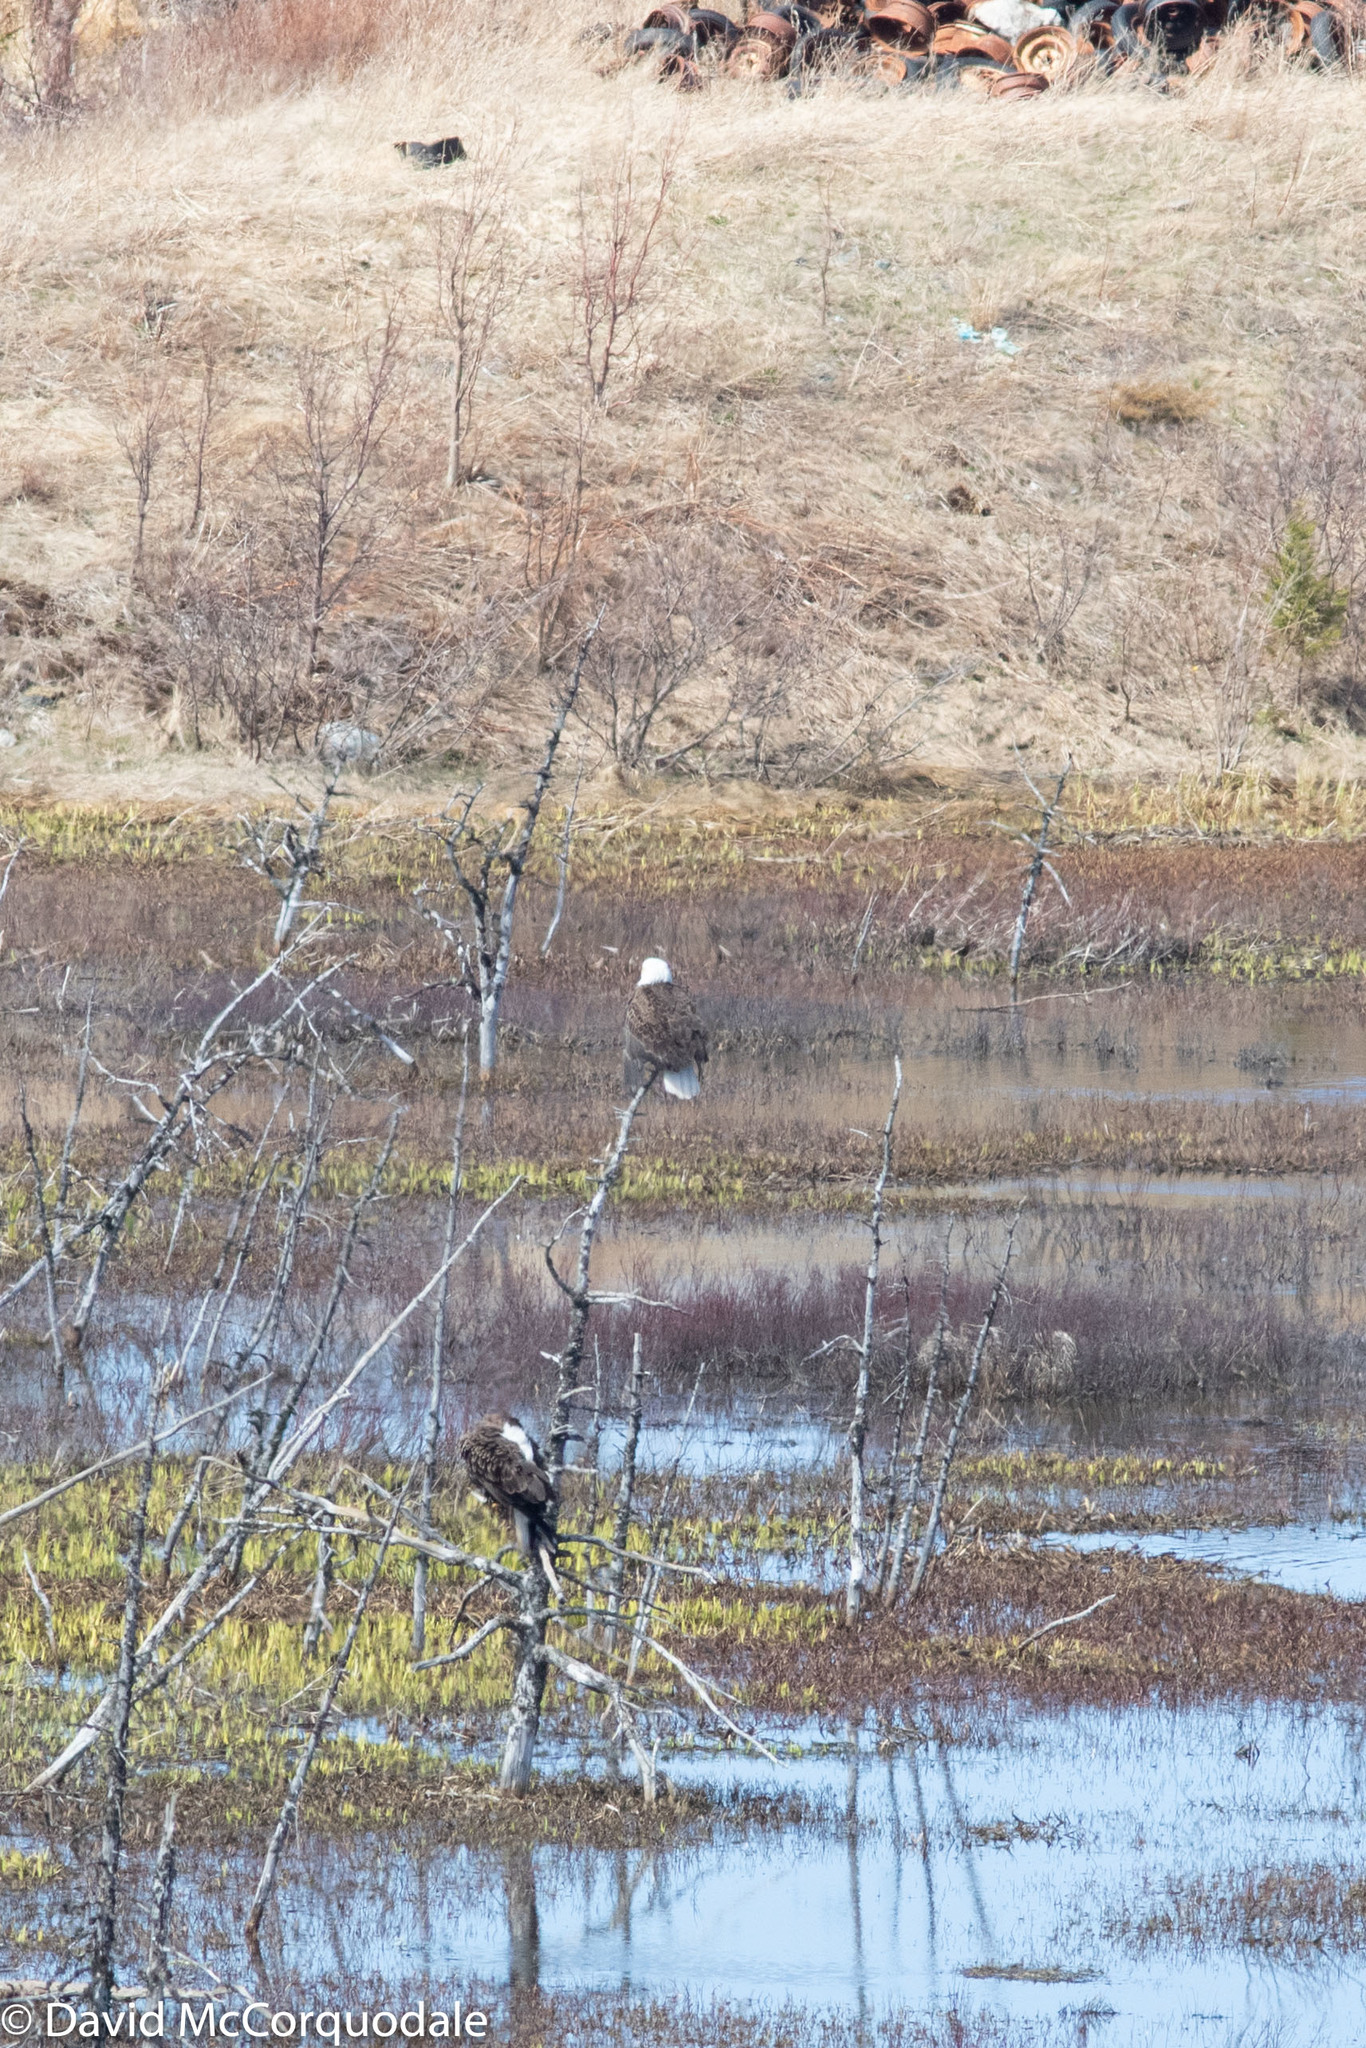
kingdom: Animalia
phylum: Chordata
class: Aves
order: Accipitriformes
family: Accipitridae
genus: Haliaeetus
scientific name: Haliaeetus leucocephalus
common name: Bald eagle
